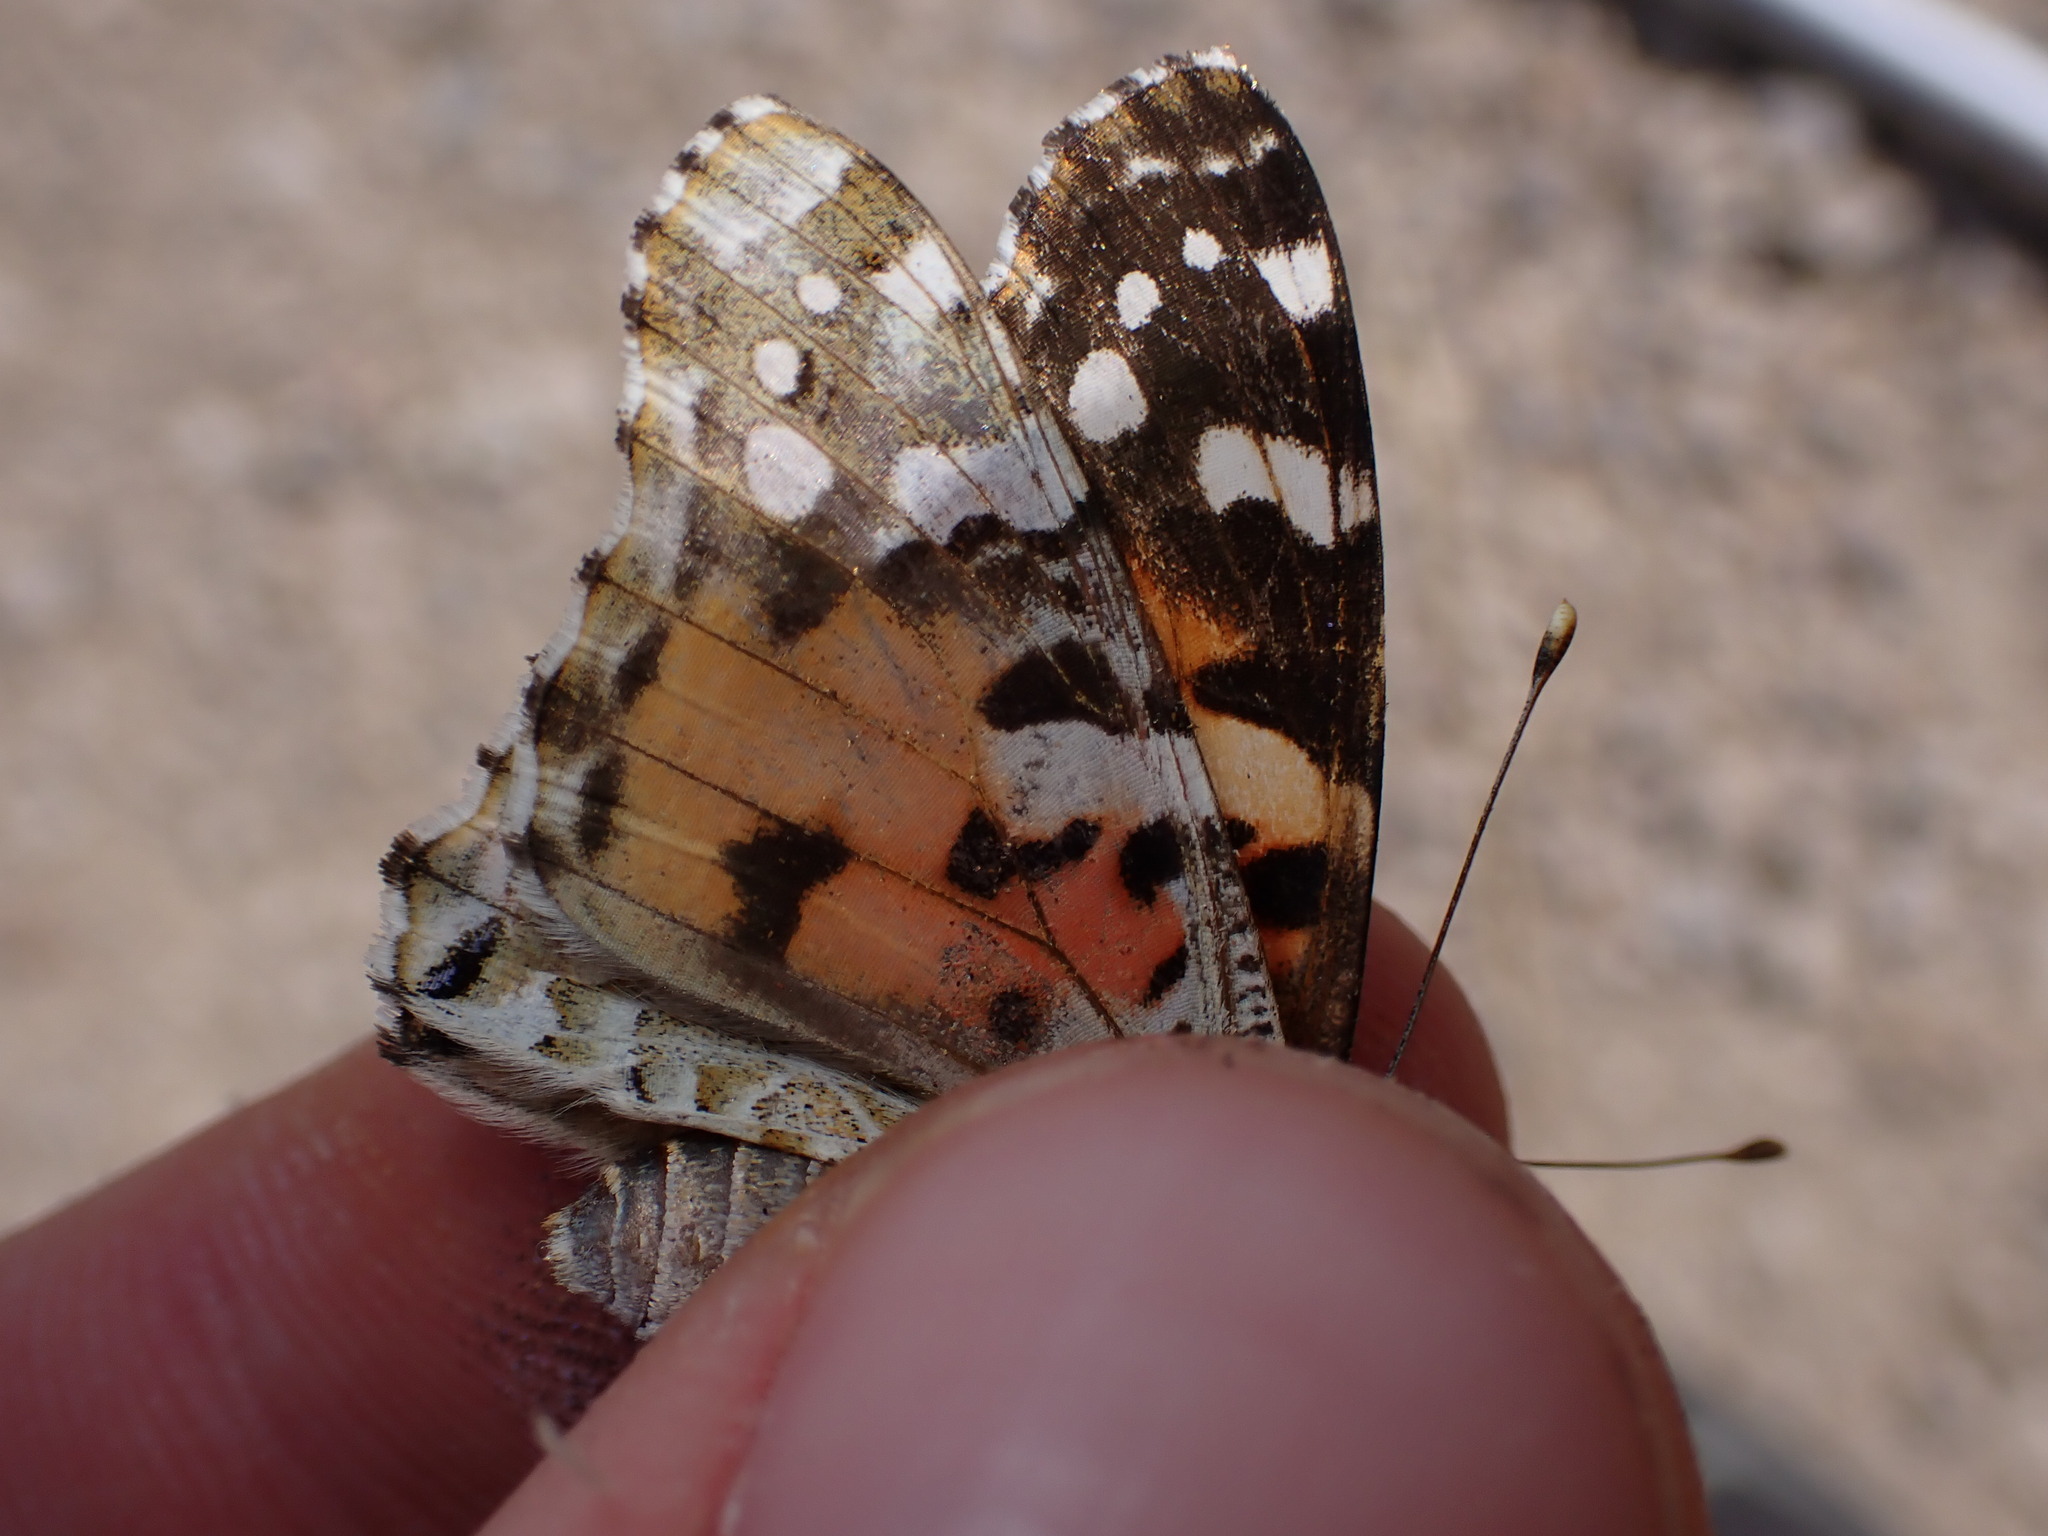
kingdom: Animalia
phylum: Arthropoda
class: Insecta
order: Lepidoptera
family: Nymphalidae
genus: Vanessa
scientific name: Vanessa cardui
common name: Painted lady
